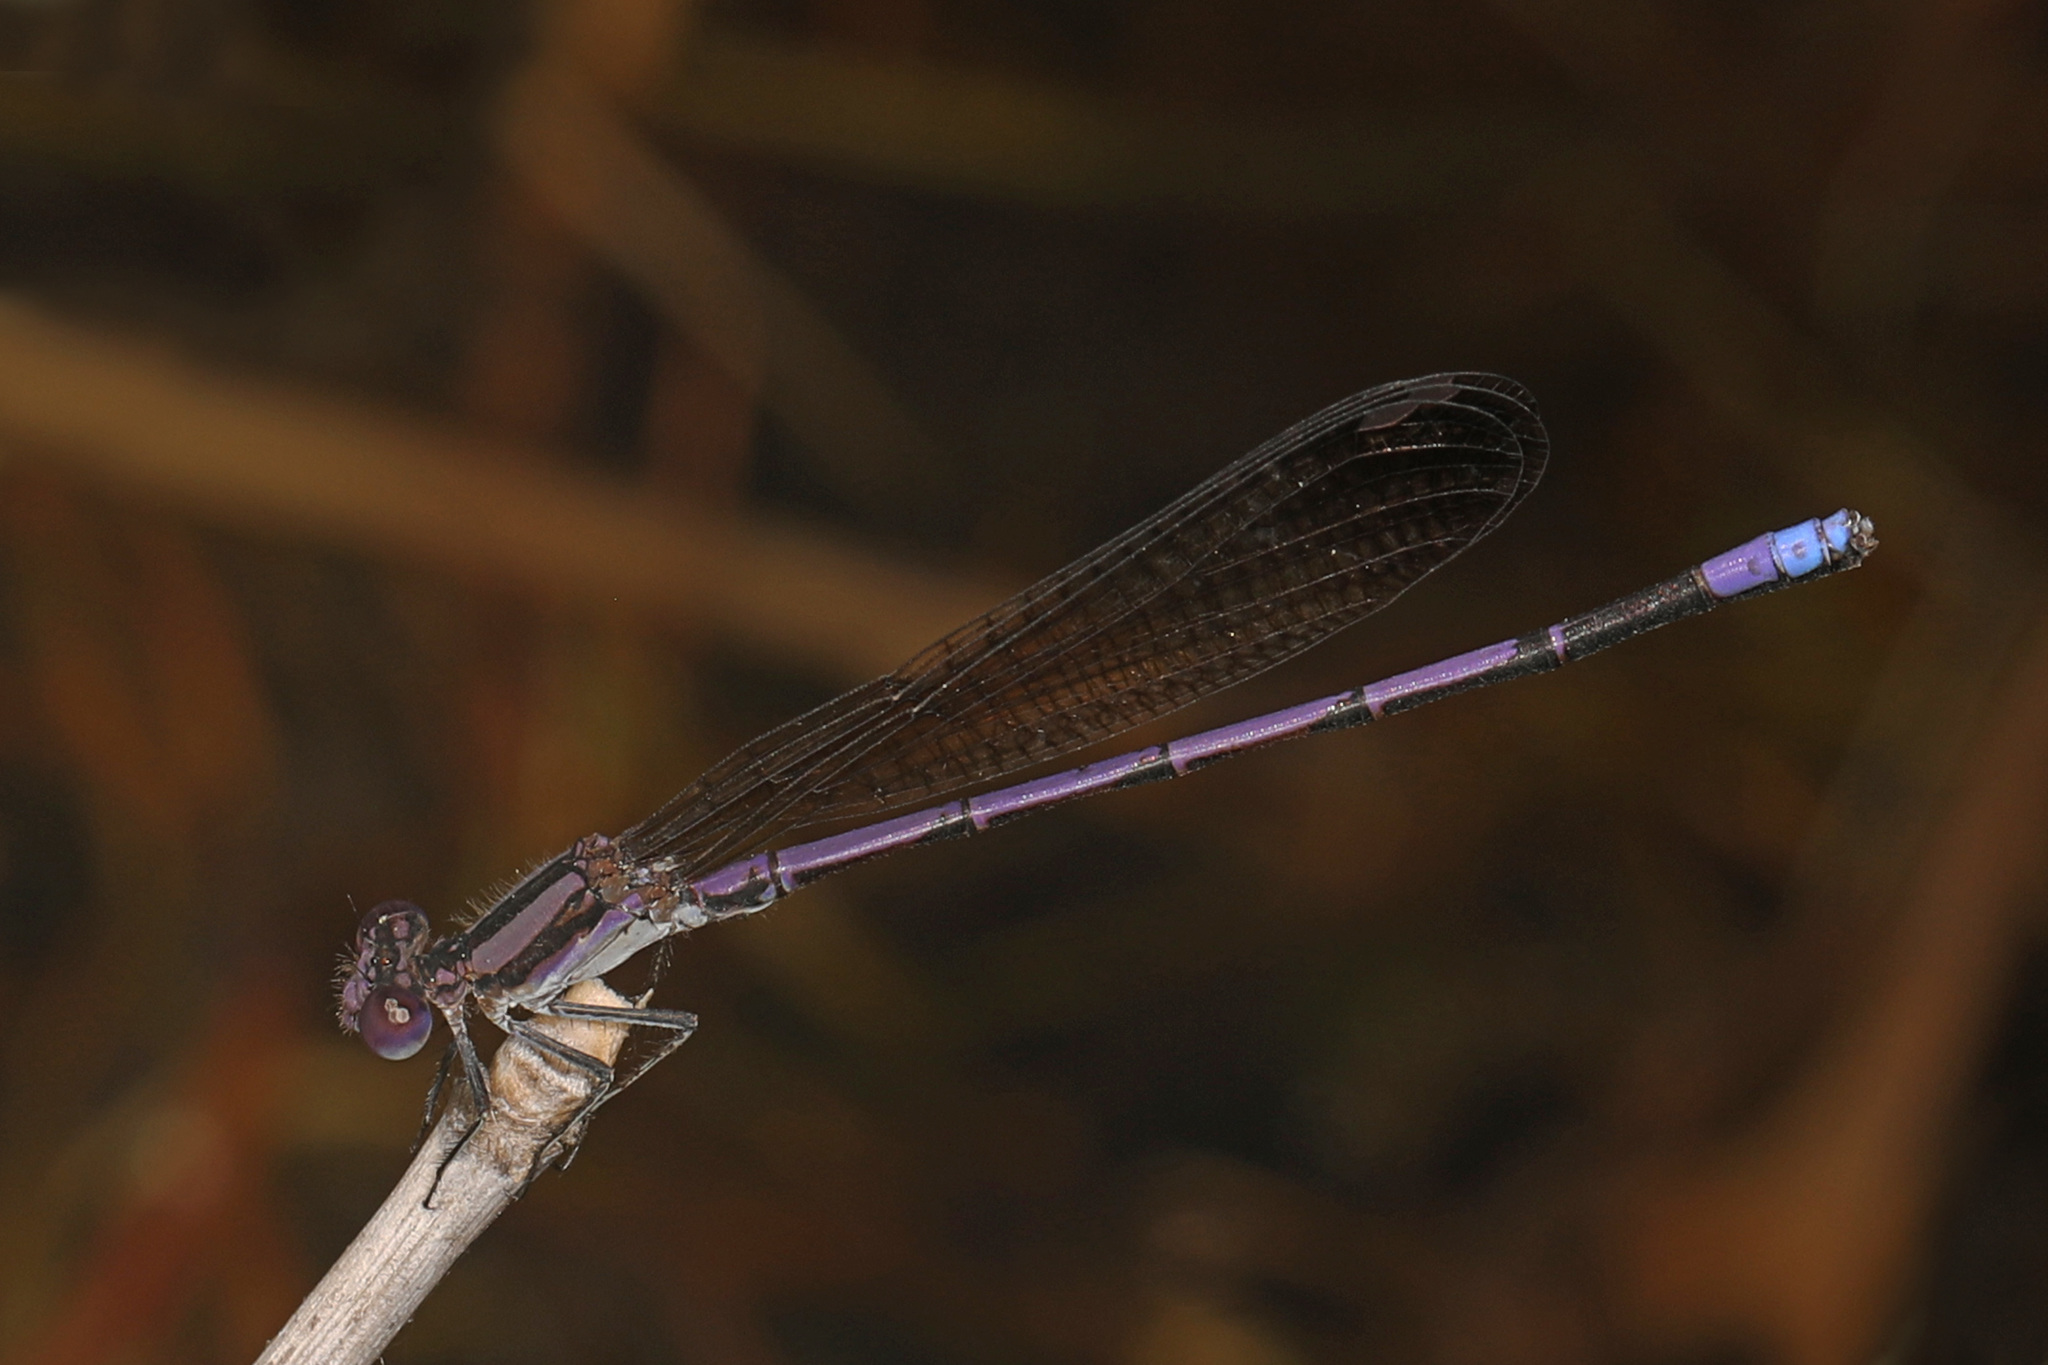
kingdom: Animalia
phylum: Arthropoda
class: Insecta
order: Odonata
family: Coenagrionidae
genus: Argia
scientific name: Argia fumipennis
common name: Variable dancer
